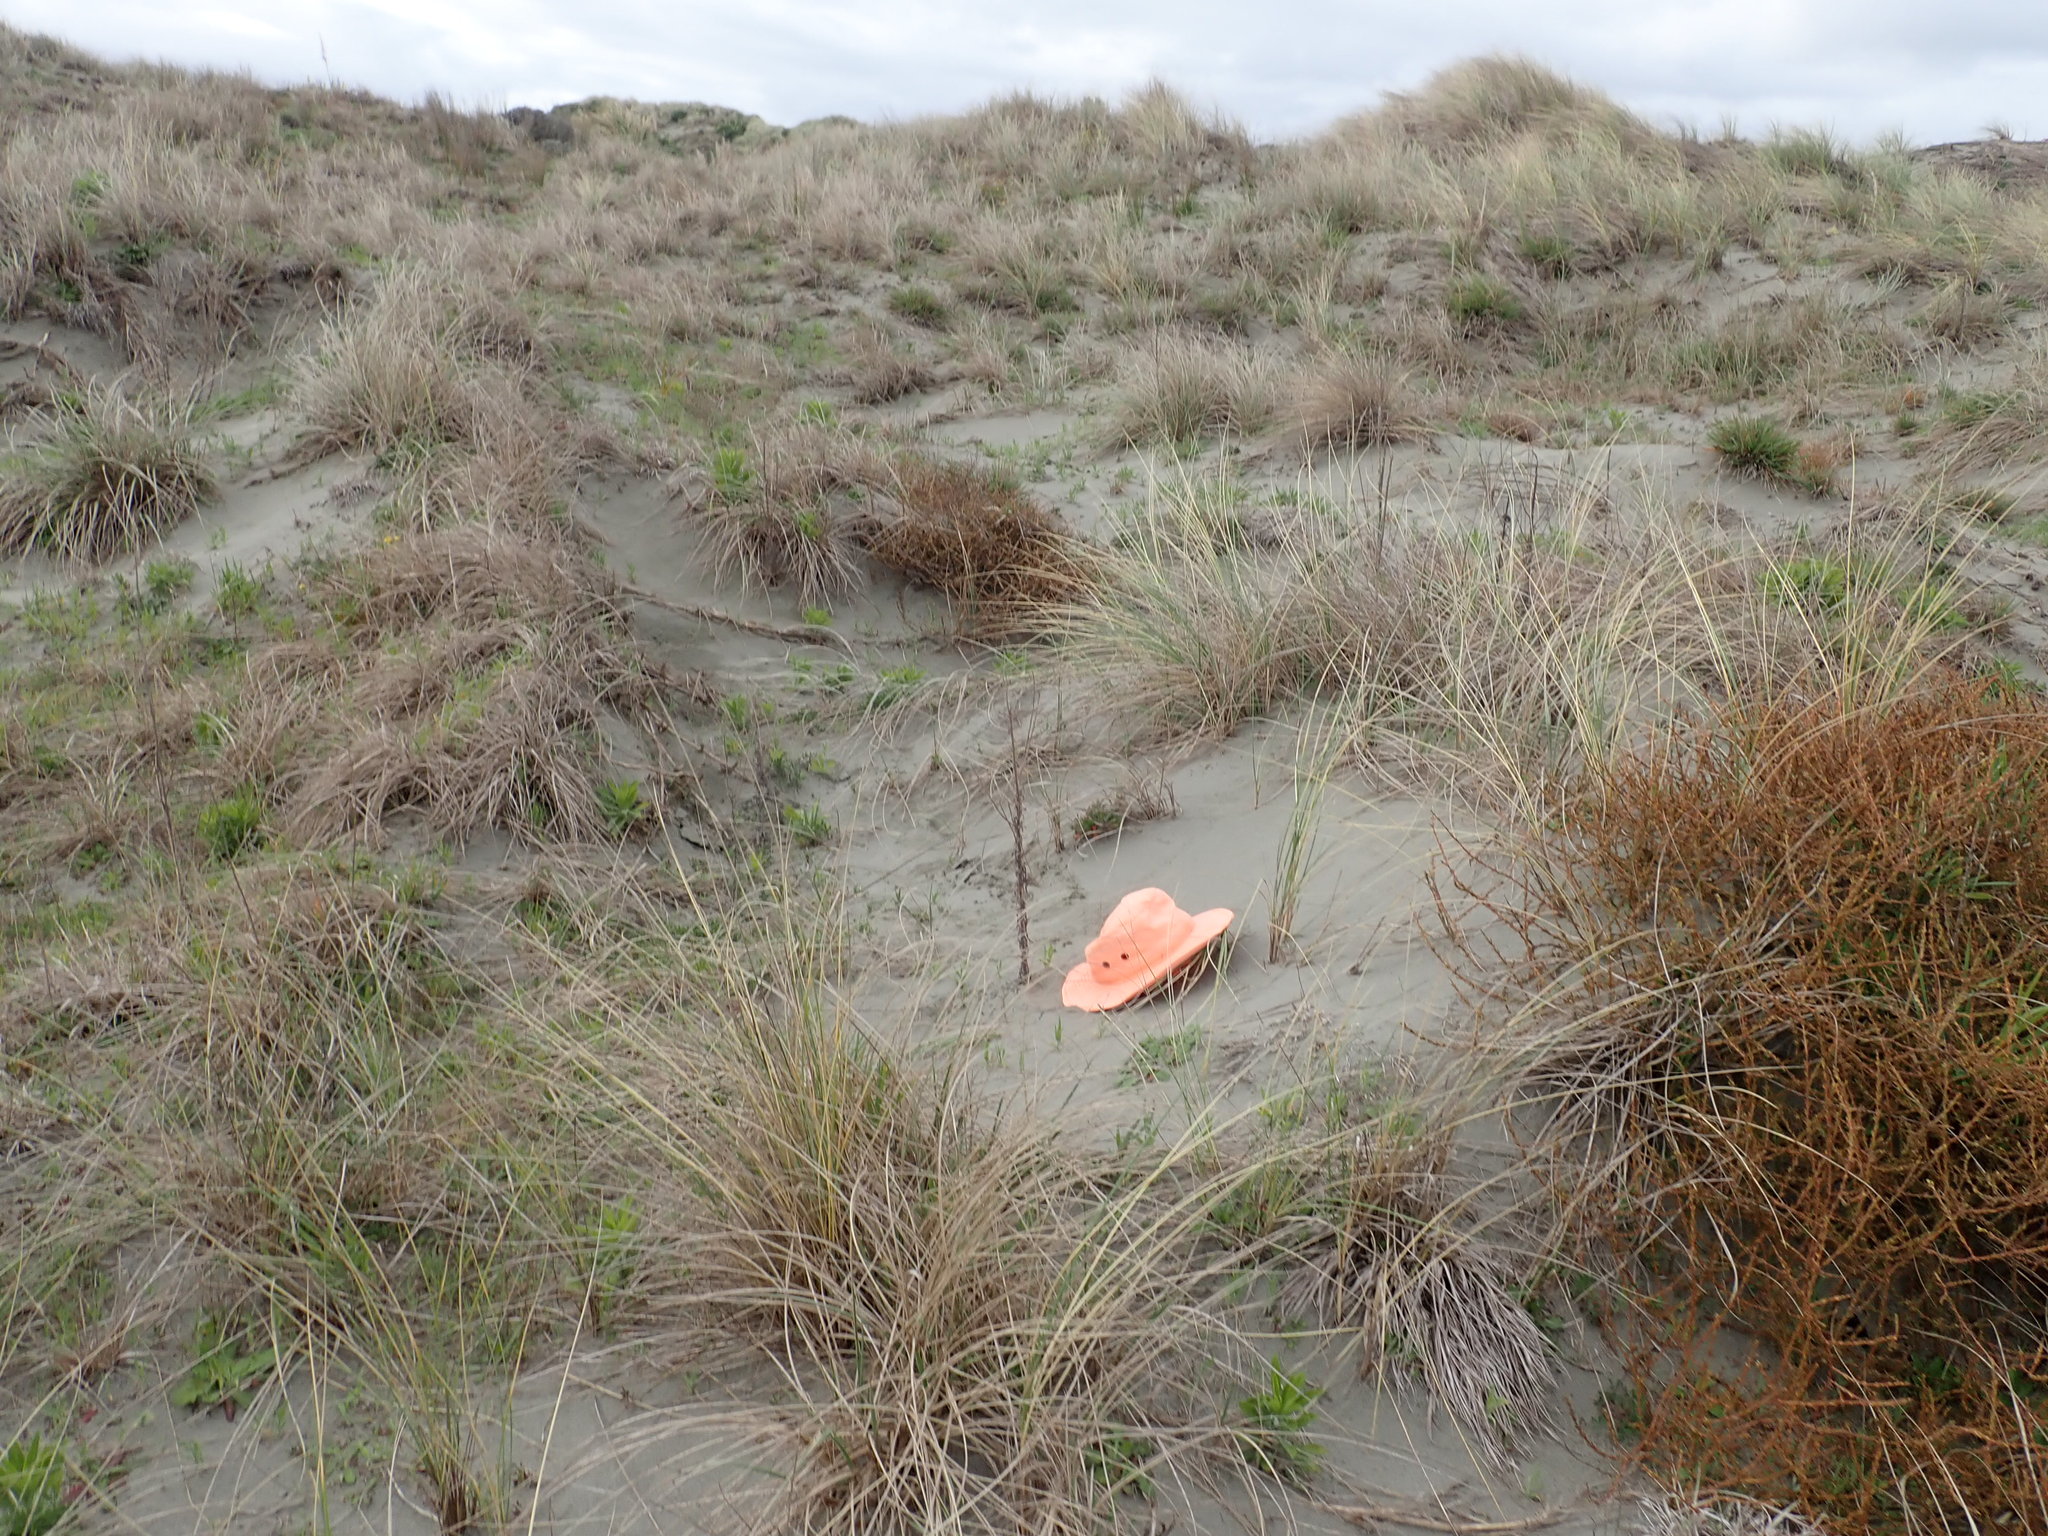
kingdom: Animalia
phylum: Arthropoda
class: Arachnida
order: Araneae
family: Lycosidae
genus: Anoteropsis
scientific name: Anoteropsis litoralis
